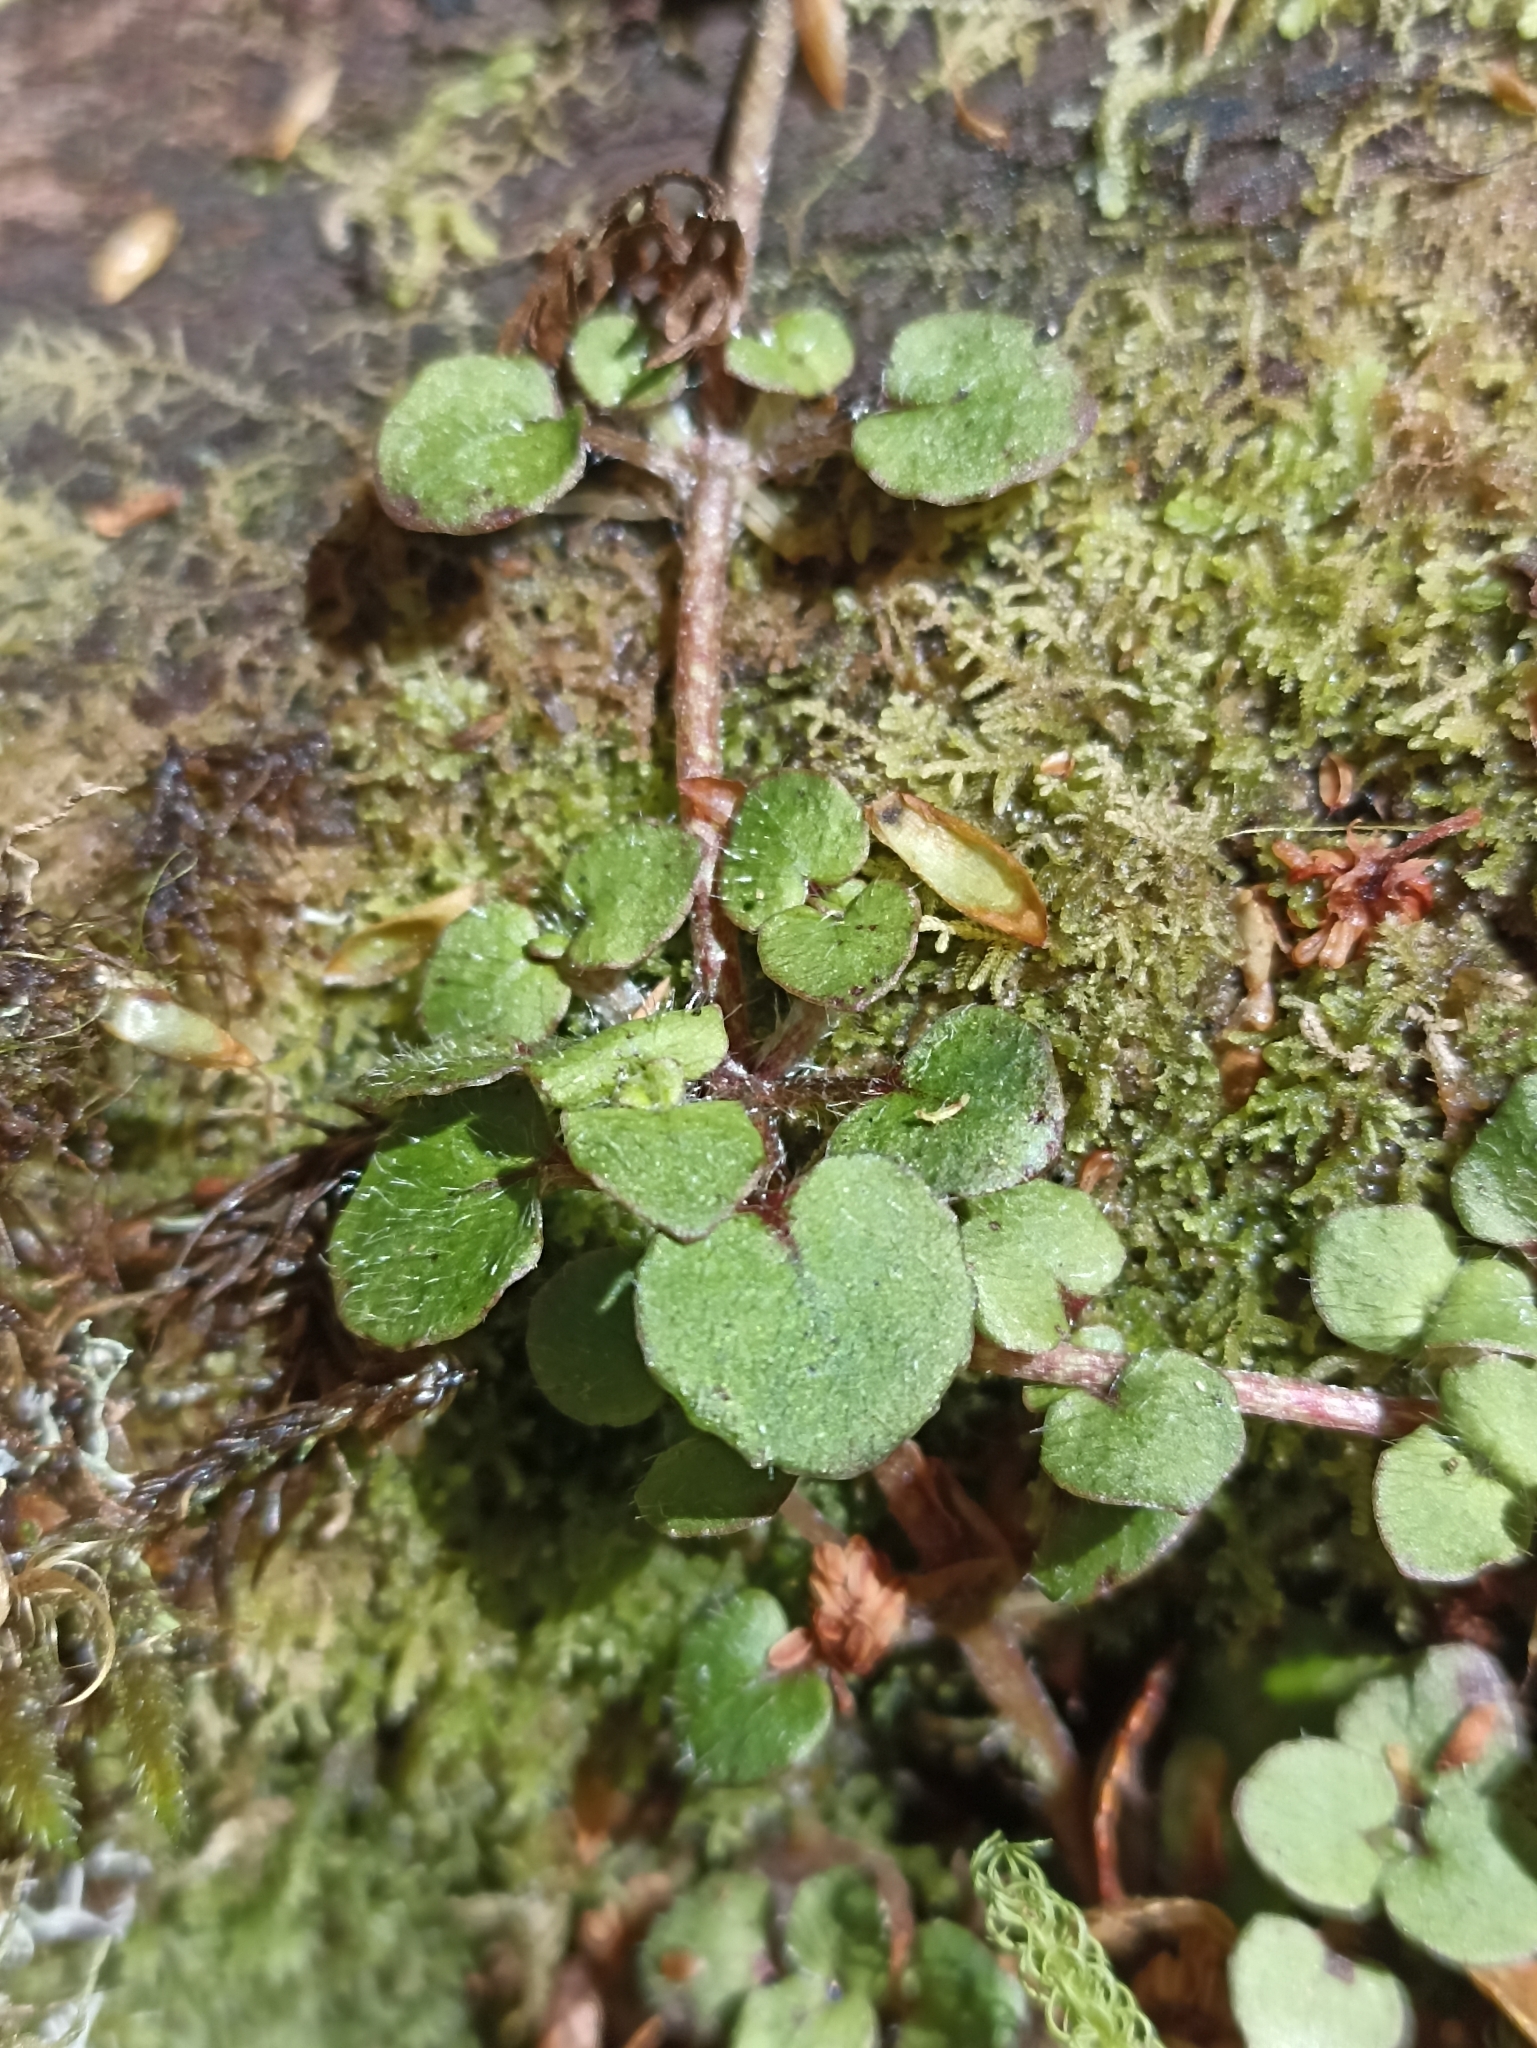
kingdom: Plantae
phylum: Tracheophyta
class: Magnoliopsida
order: Gentianales
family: Rubiaceae
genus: Nertera
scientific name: Nertera villosa
